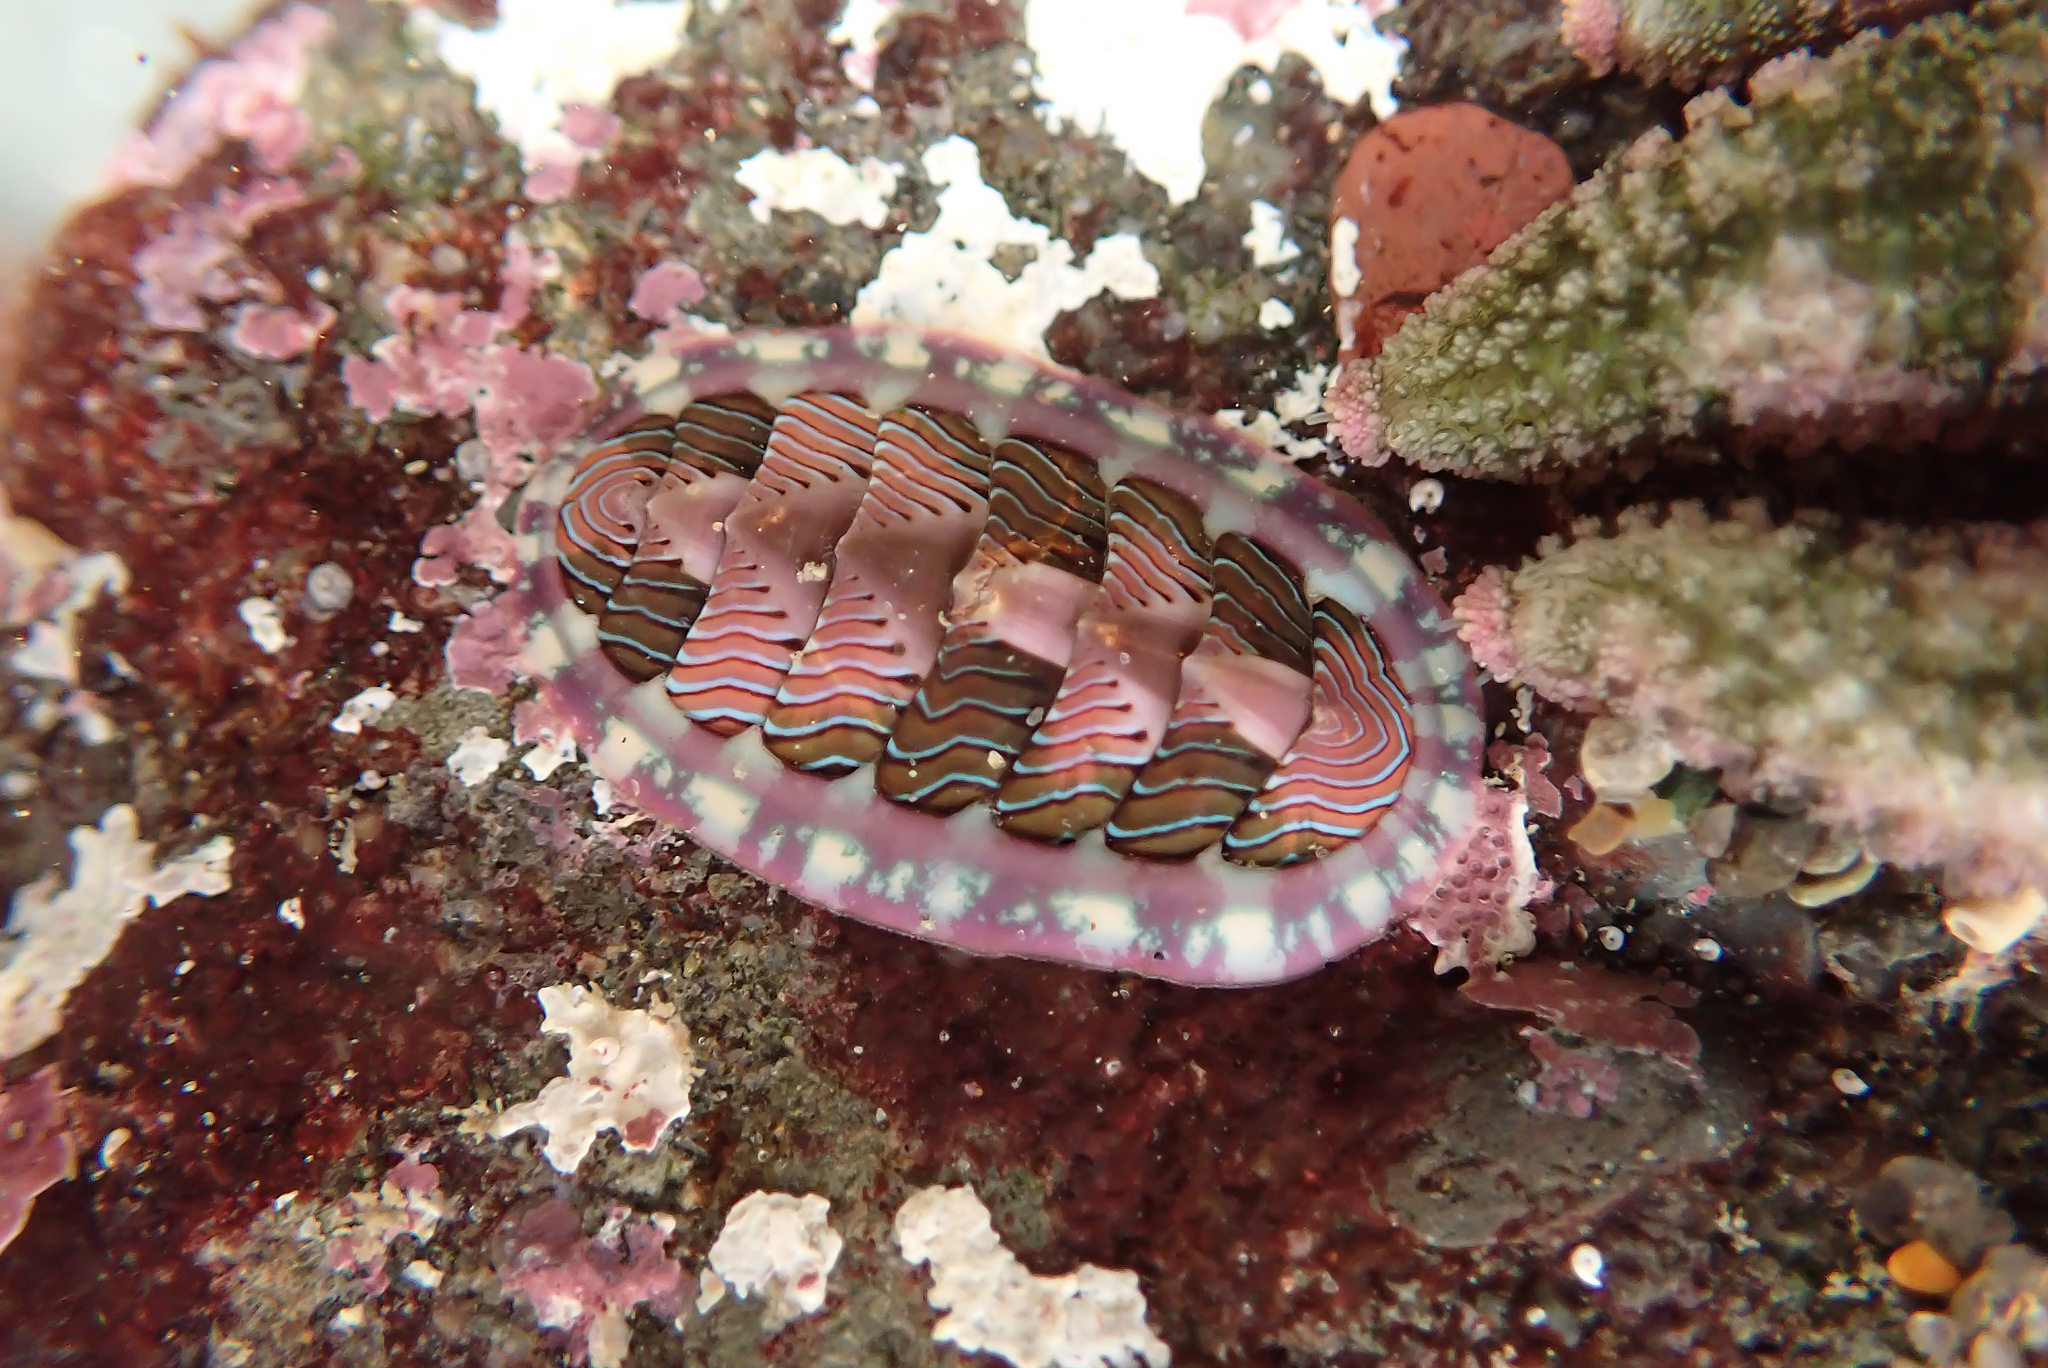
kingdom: Animalia
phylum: Mollusca
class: Polyplacophora
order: Chitonida
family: Tonicellidae
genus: Tonicella
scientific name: Tonicella lineata
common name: Lined chiton
